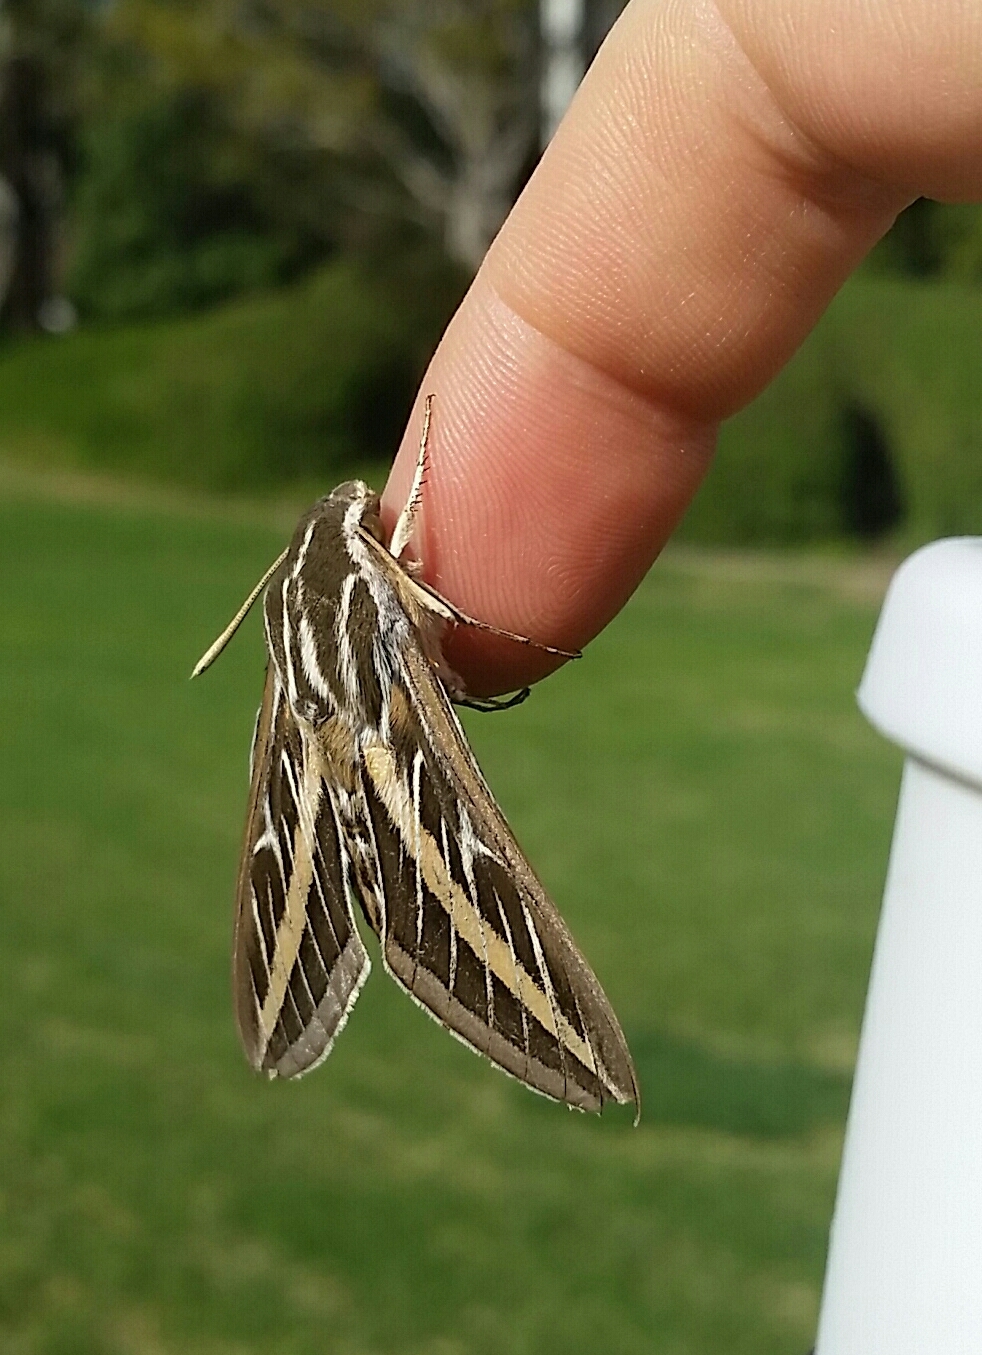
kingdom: Animalia
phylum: Arthropoda
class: Insecta
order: Lepidoptera
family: Sphingidae
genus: Hyles
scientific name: Hyles lineata
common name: White-lined sphinx
